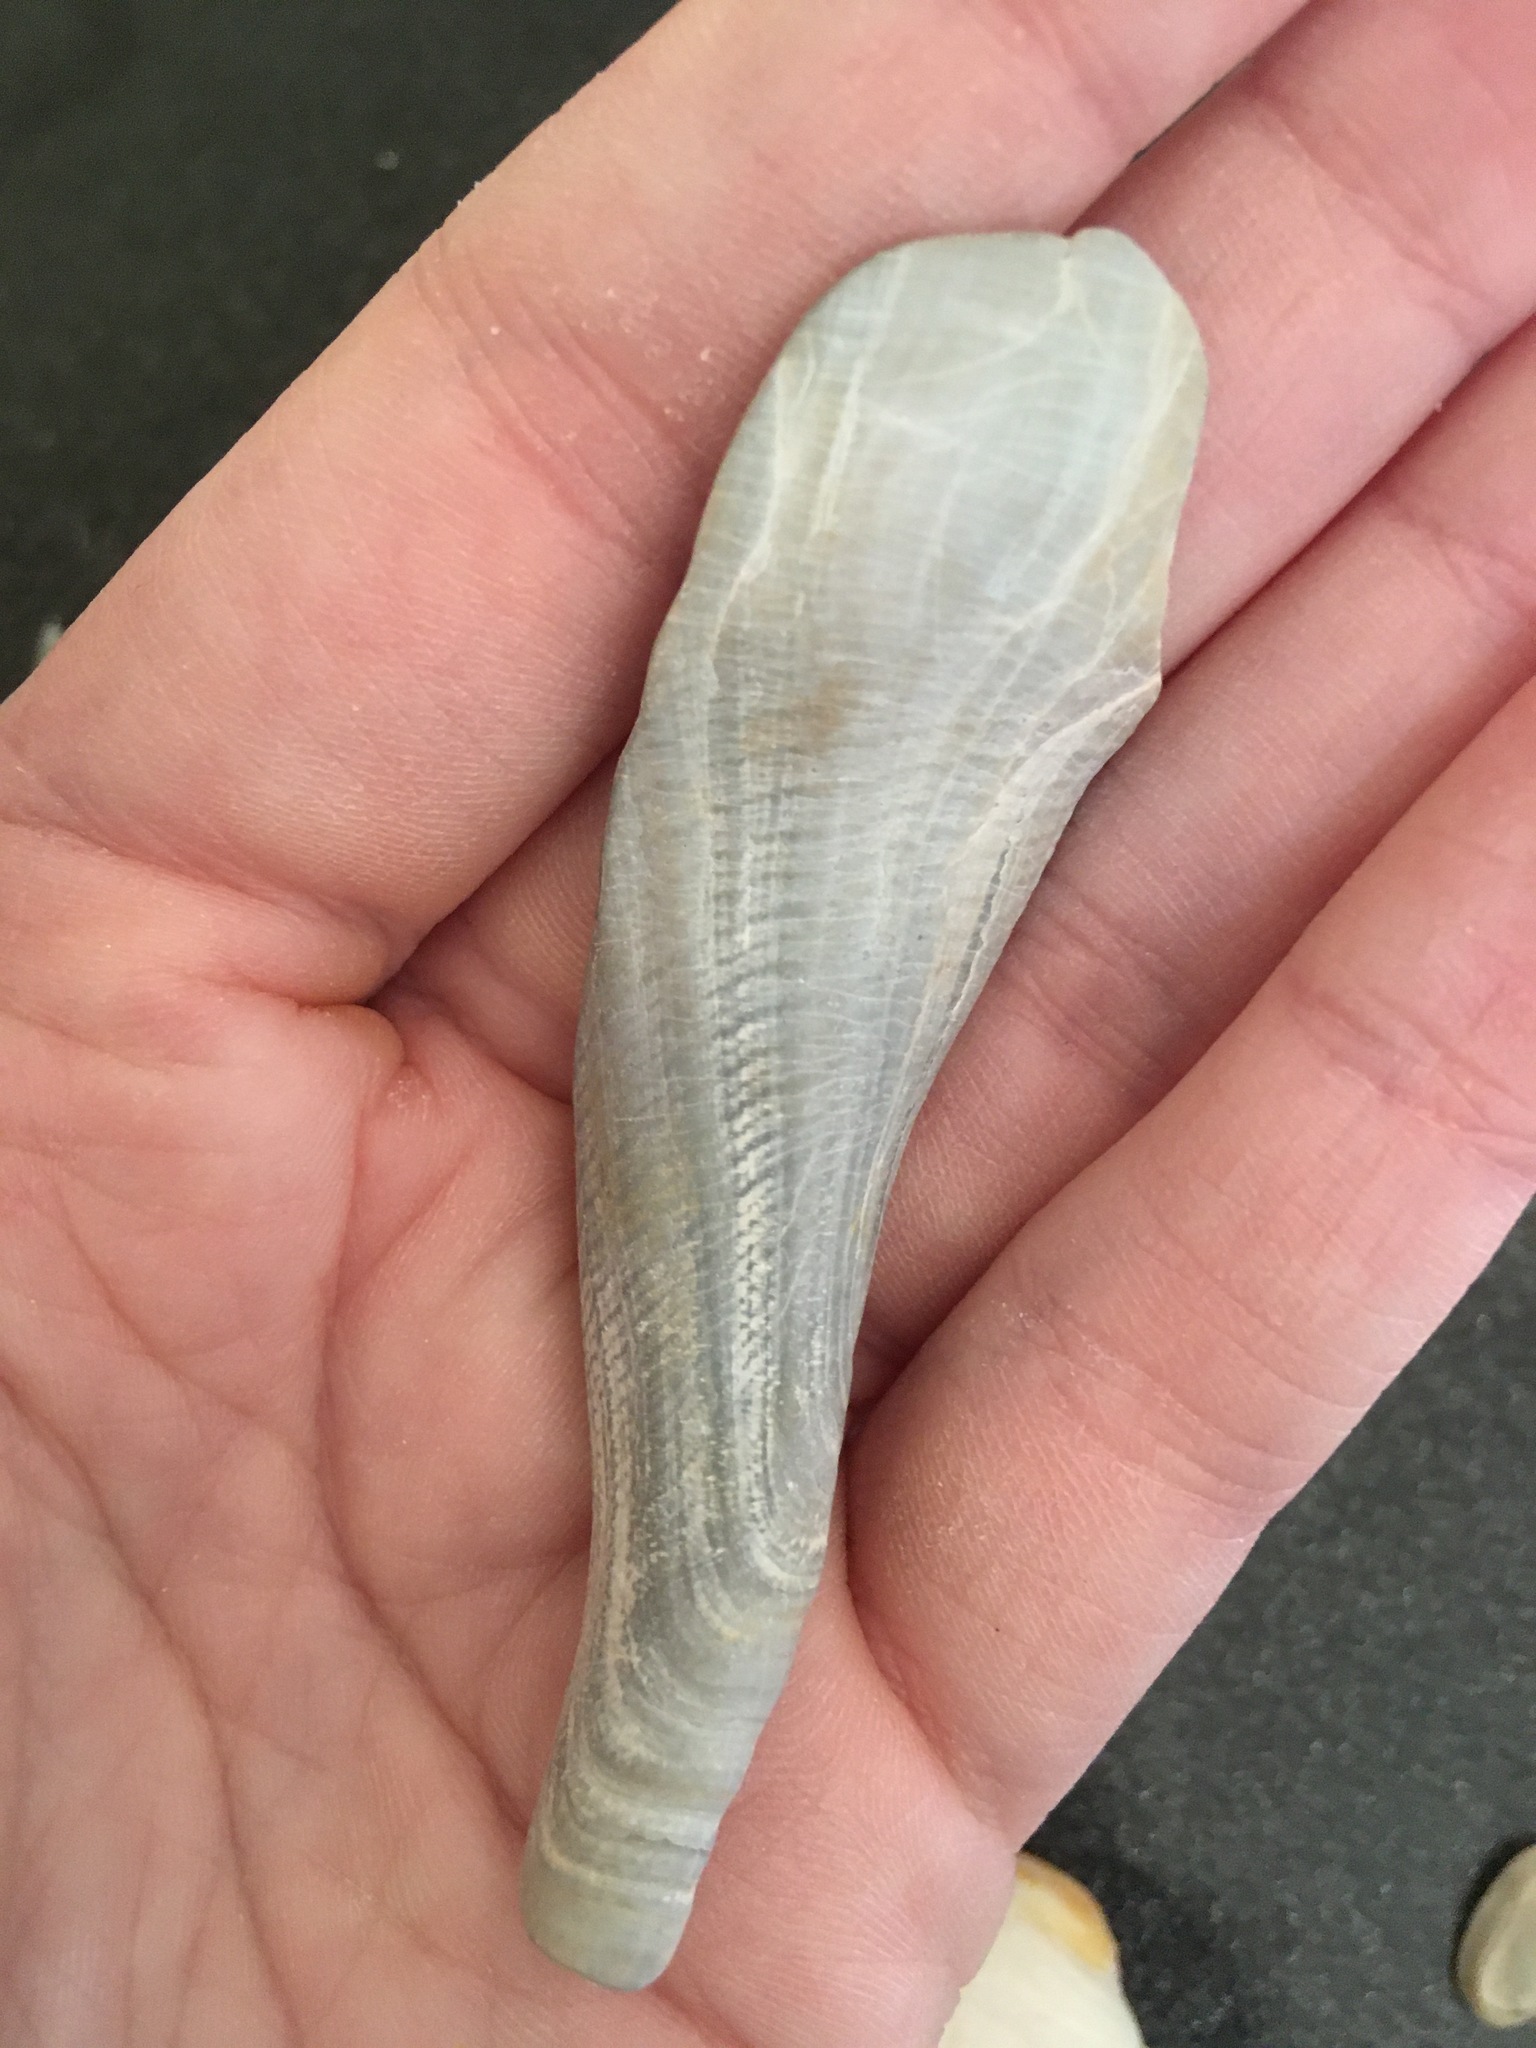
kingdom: Animalia
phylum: Mollusca
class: Gastropoda
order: Neogastropoda
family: Busyconidae
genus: Busycotypus
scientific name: Busycotypus canaliculatus
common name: Channeled whelk
